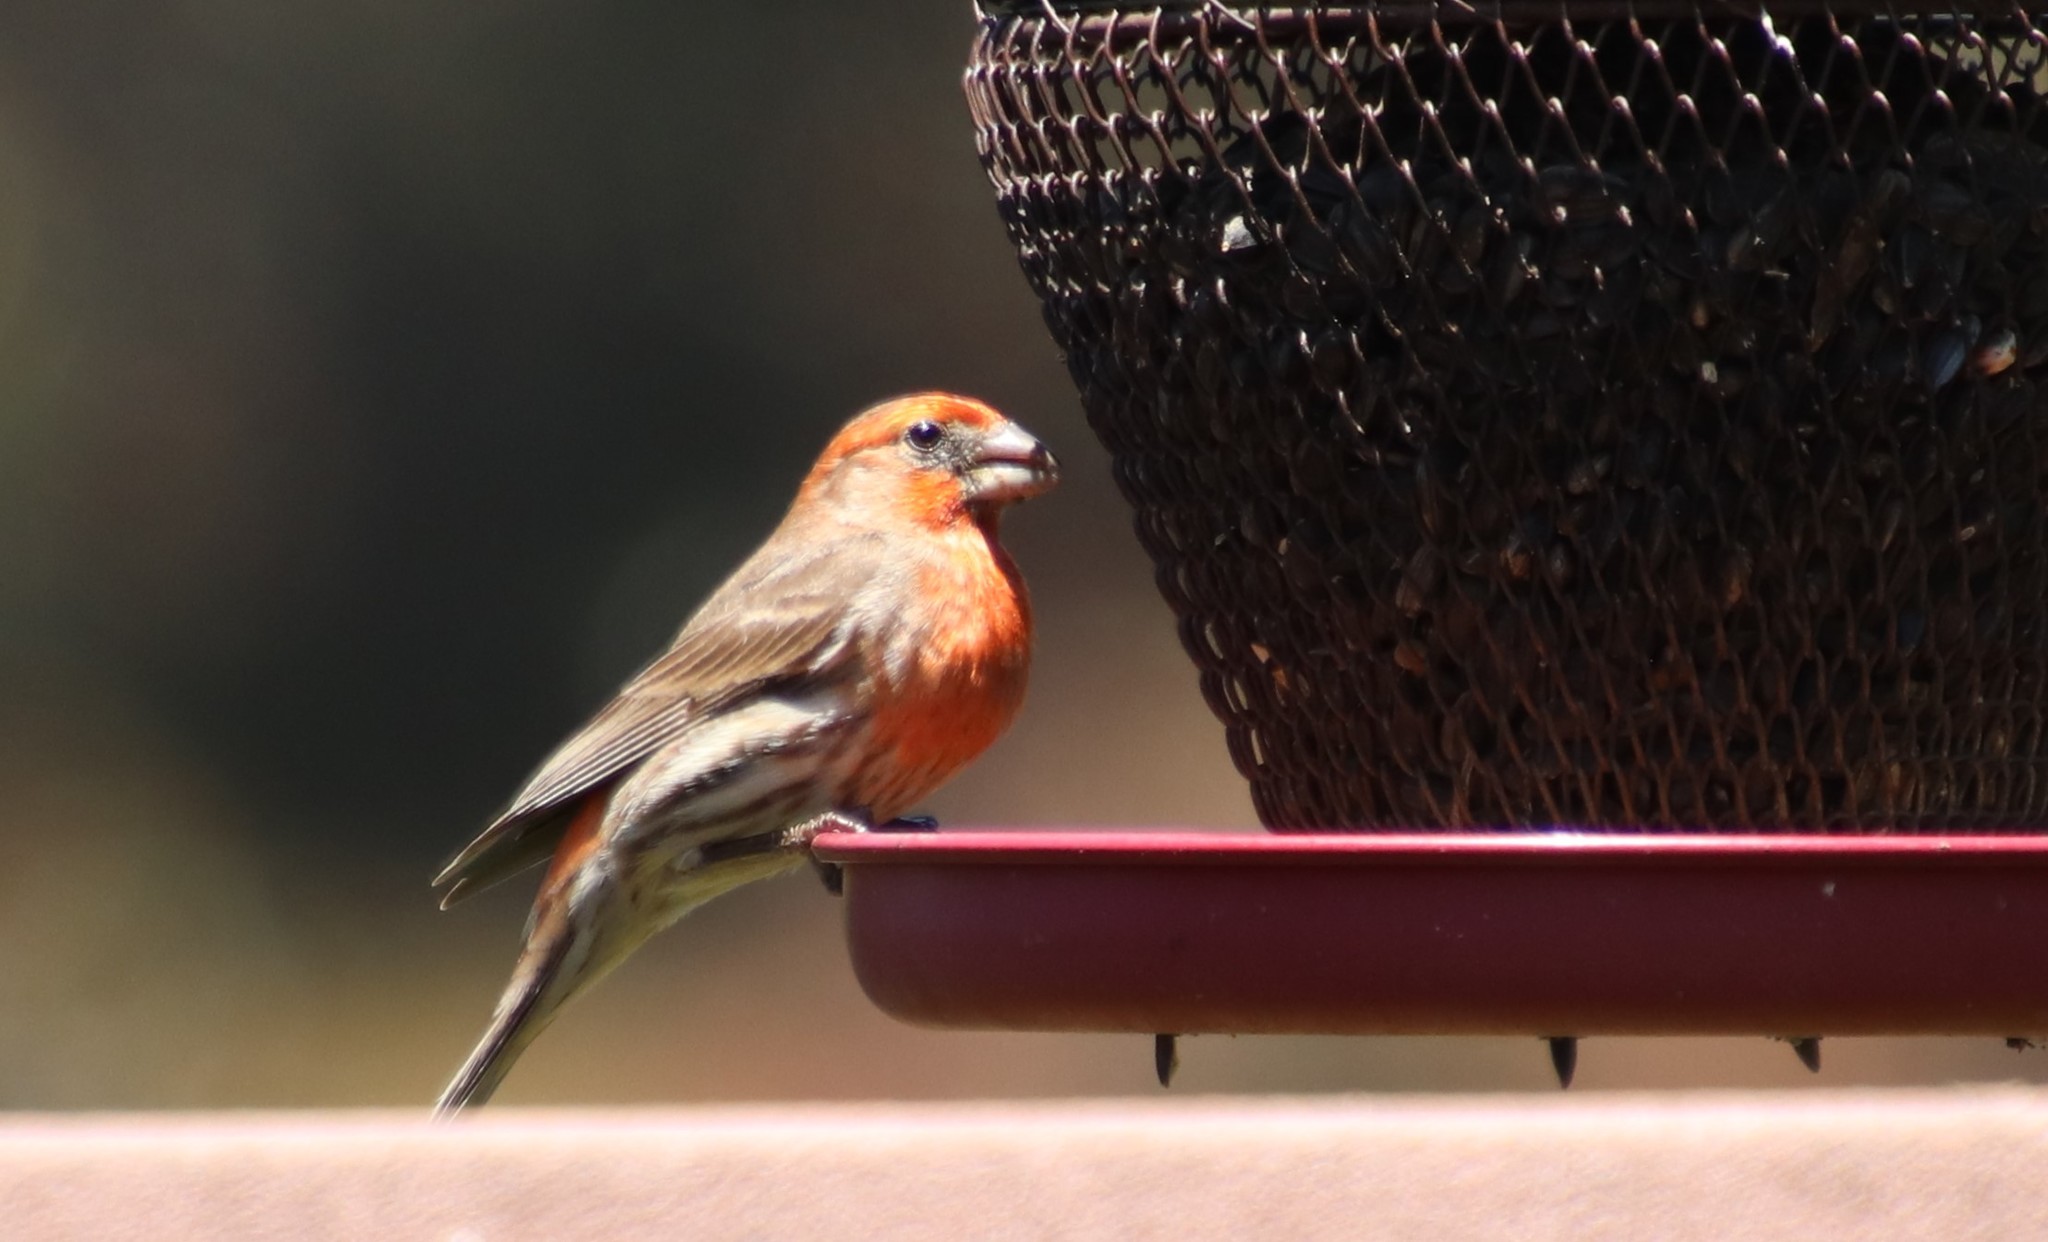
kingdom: Animalia
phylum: Chordata
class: Aves
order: Passeriformes
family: Fringillidae
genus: Haemorhous
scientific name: Haemorhous mexicanus
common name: House finch
